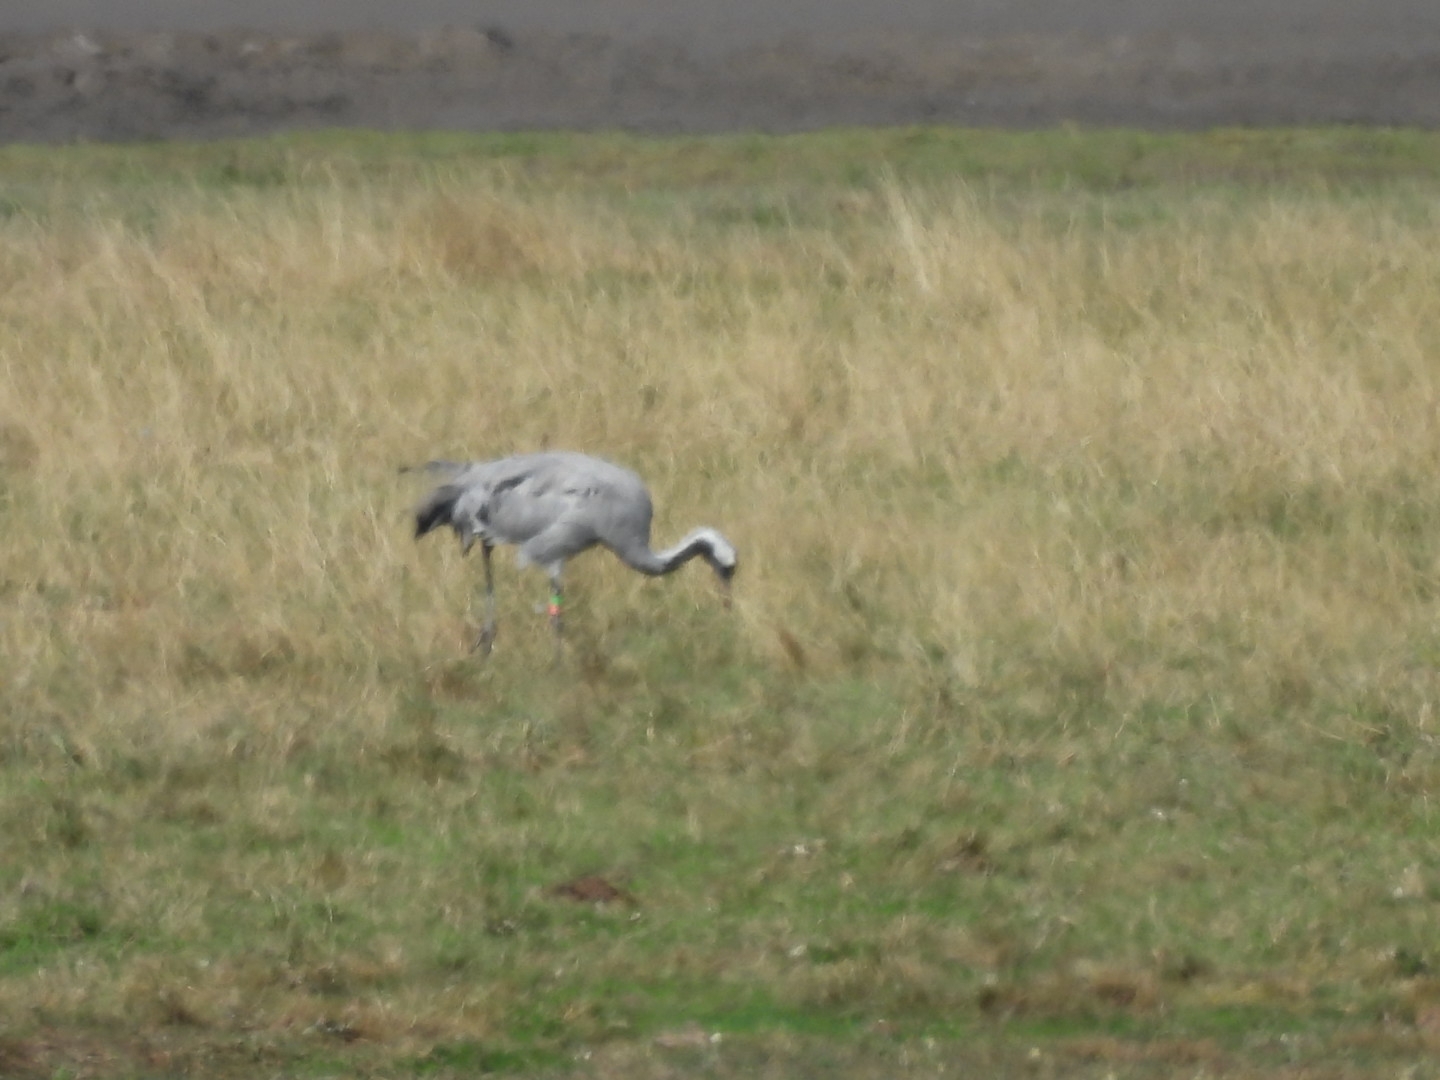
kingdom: Animalia
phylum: Chordata
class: Aves
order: Gruiformes
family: Gruidae
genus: Grus
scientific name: Grus grus
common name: Common crane
